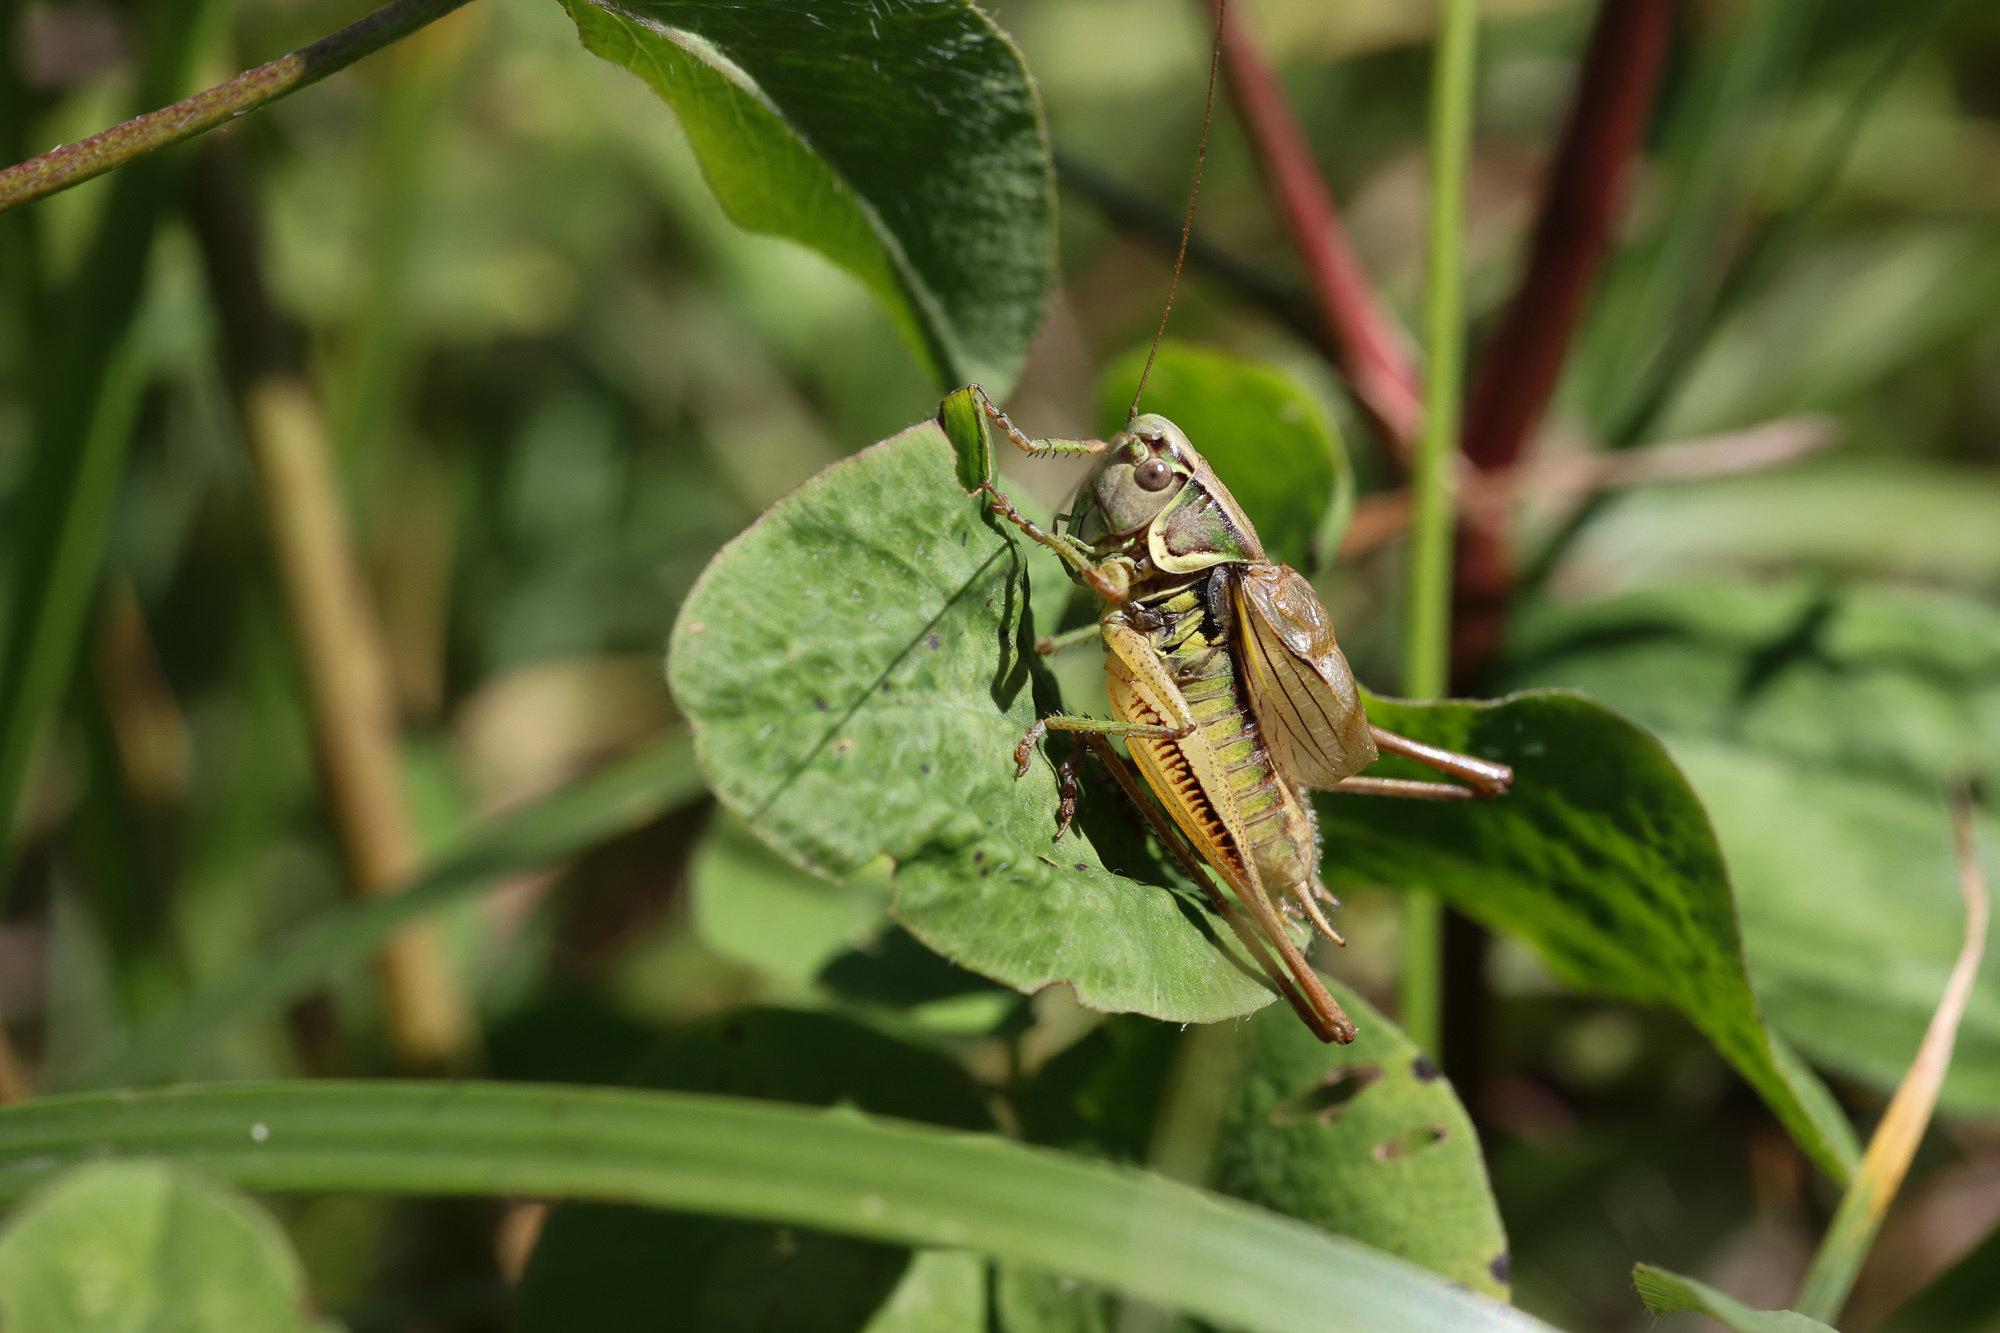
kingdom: Animalia
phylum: Arthropoda
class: Insecta
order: Orthoptera
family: Tettigoniidae
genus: Roeseliana
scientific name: Roeseliana roeselii
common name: Roesel's bush cricket
